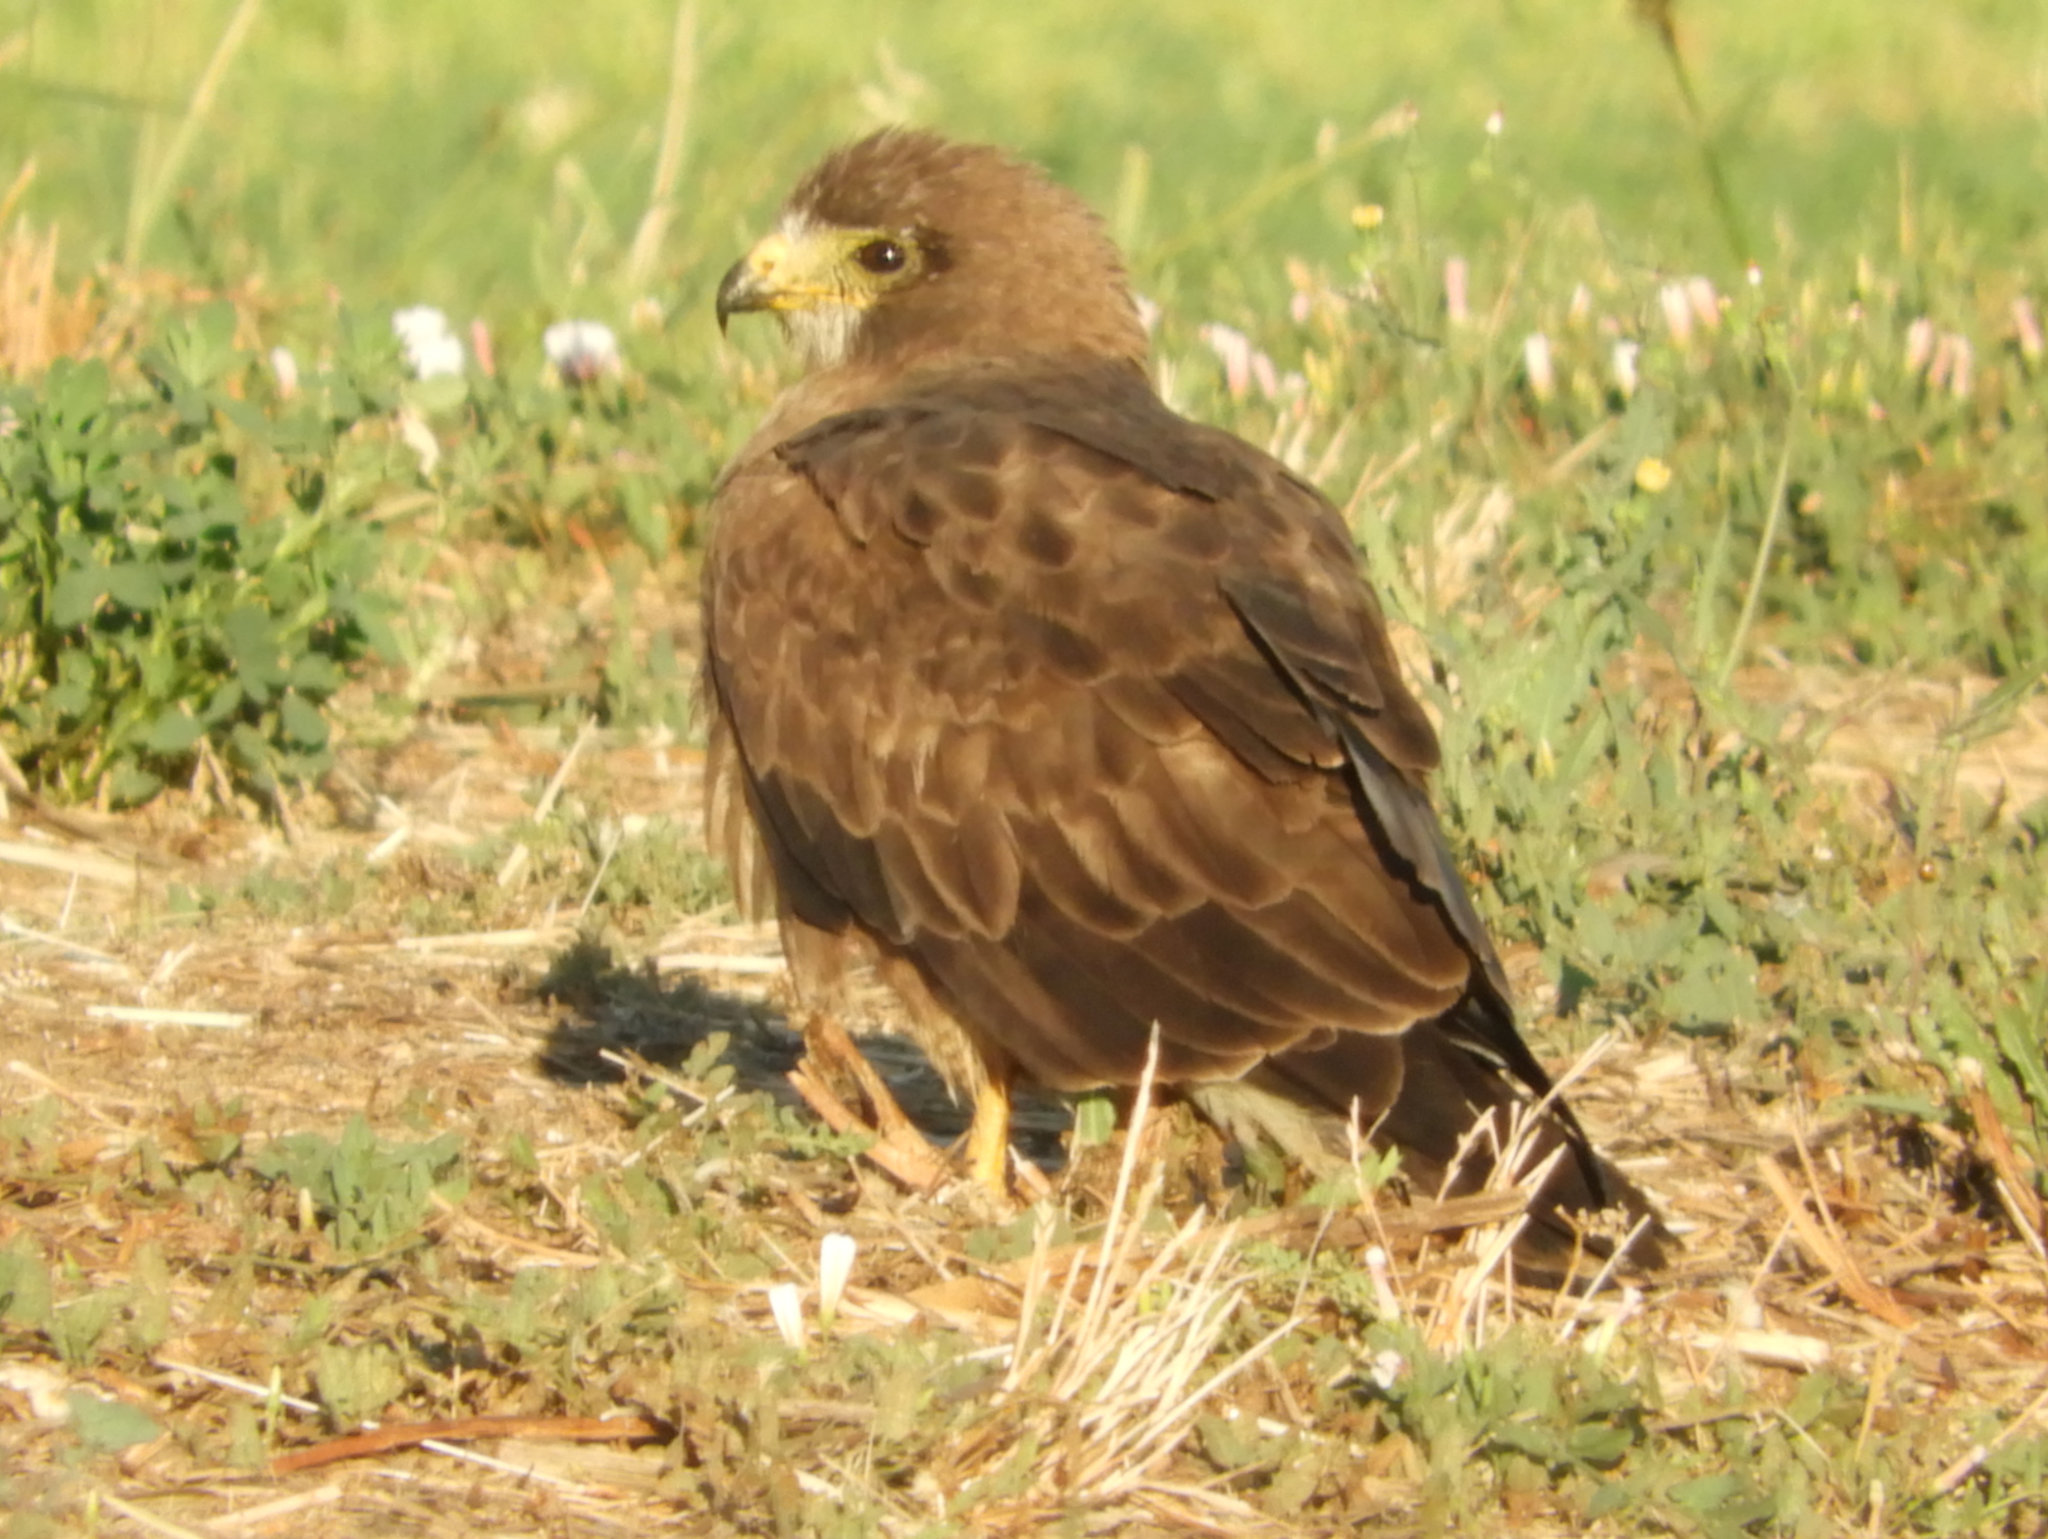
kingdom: Animalia
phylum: Chordata
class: Aves
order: Accipitriformes
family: Accipitridae
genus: Buteo
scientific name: Buteo swainsoni
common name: Swainson's hawk
